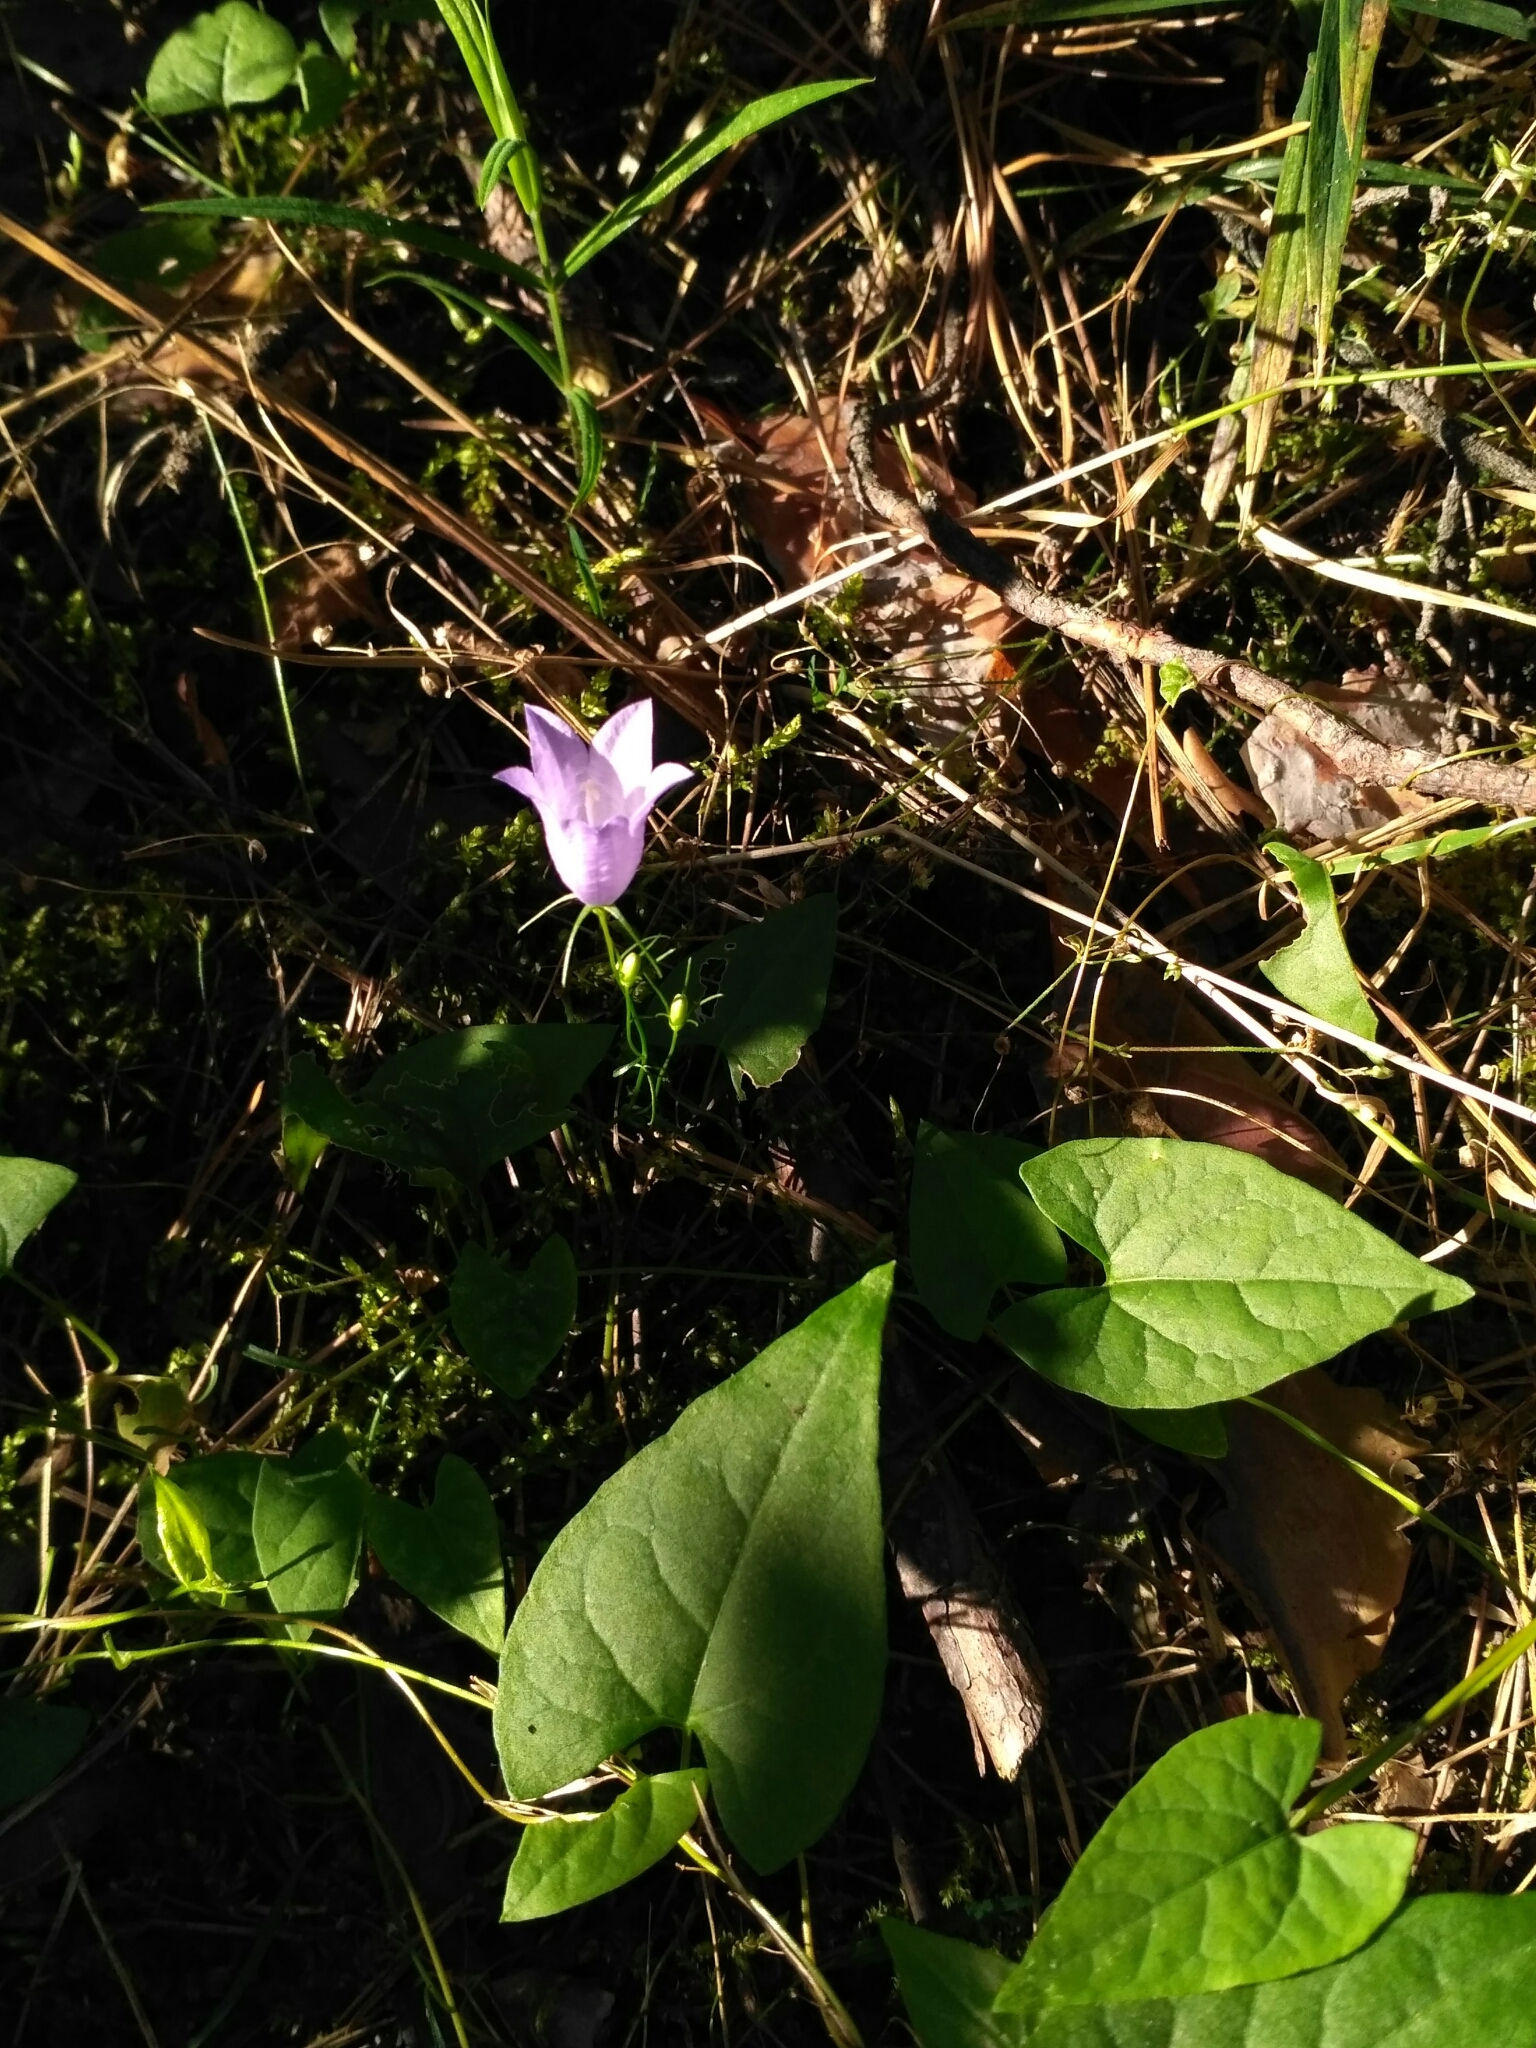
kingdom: Plantae
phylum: Tracheophyta
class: Magnoliopsida
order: Asterales
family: Campanulaceae
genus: Campanula
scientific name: Campanula rotundifolia
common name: Harebell
